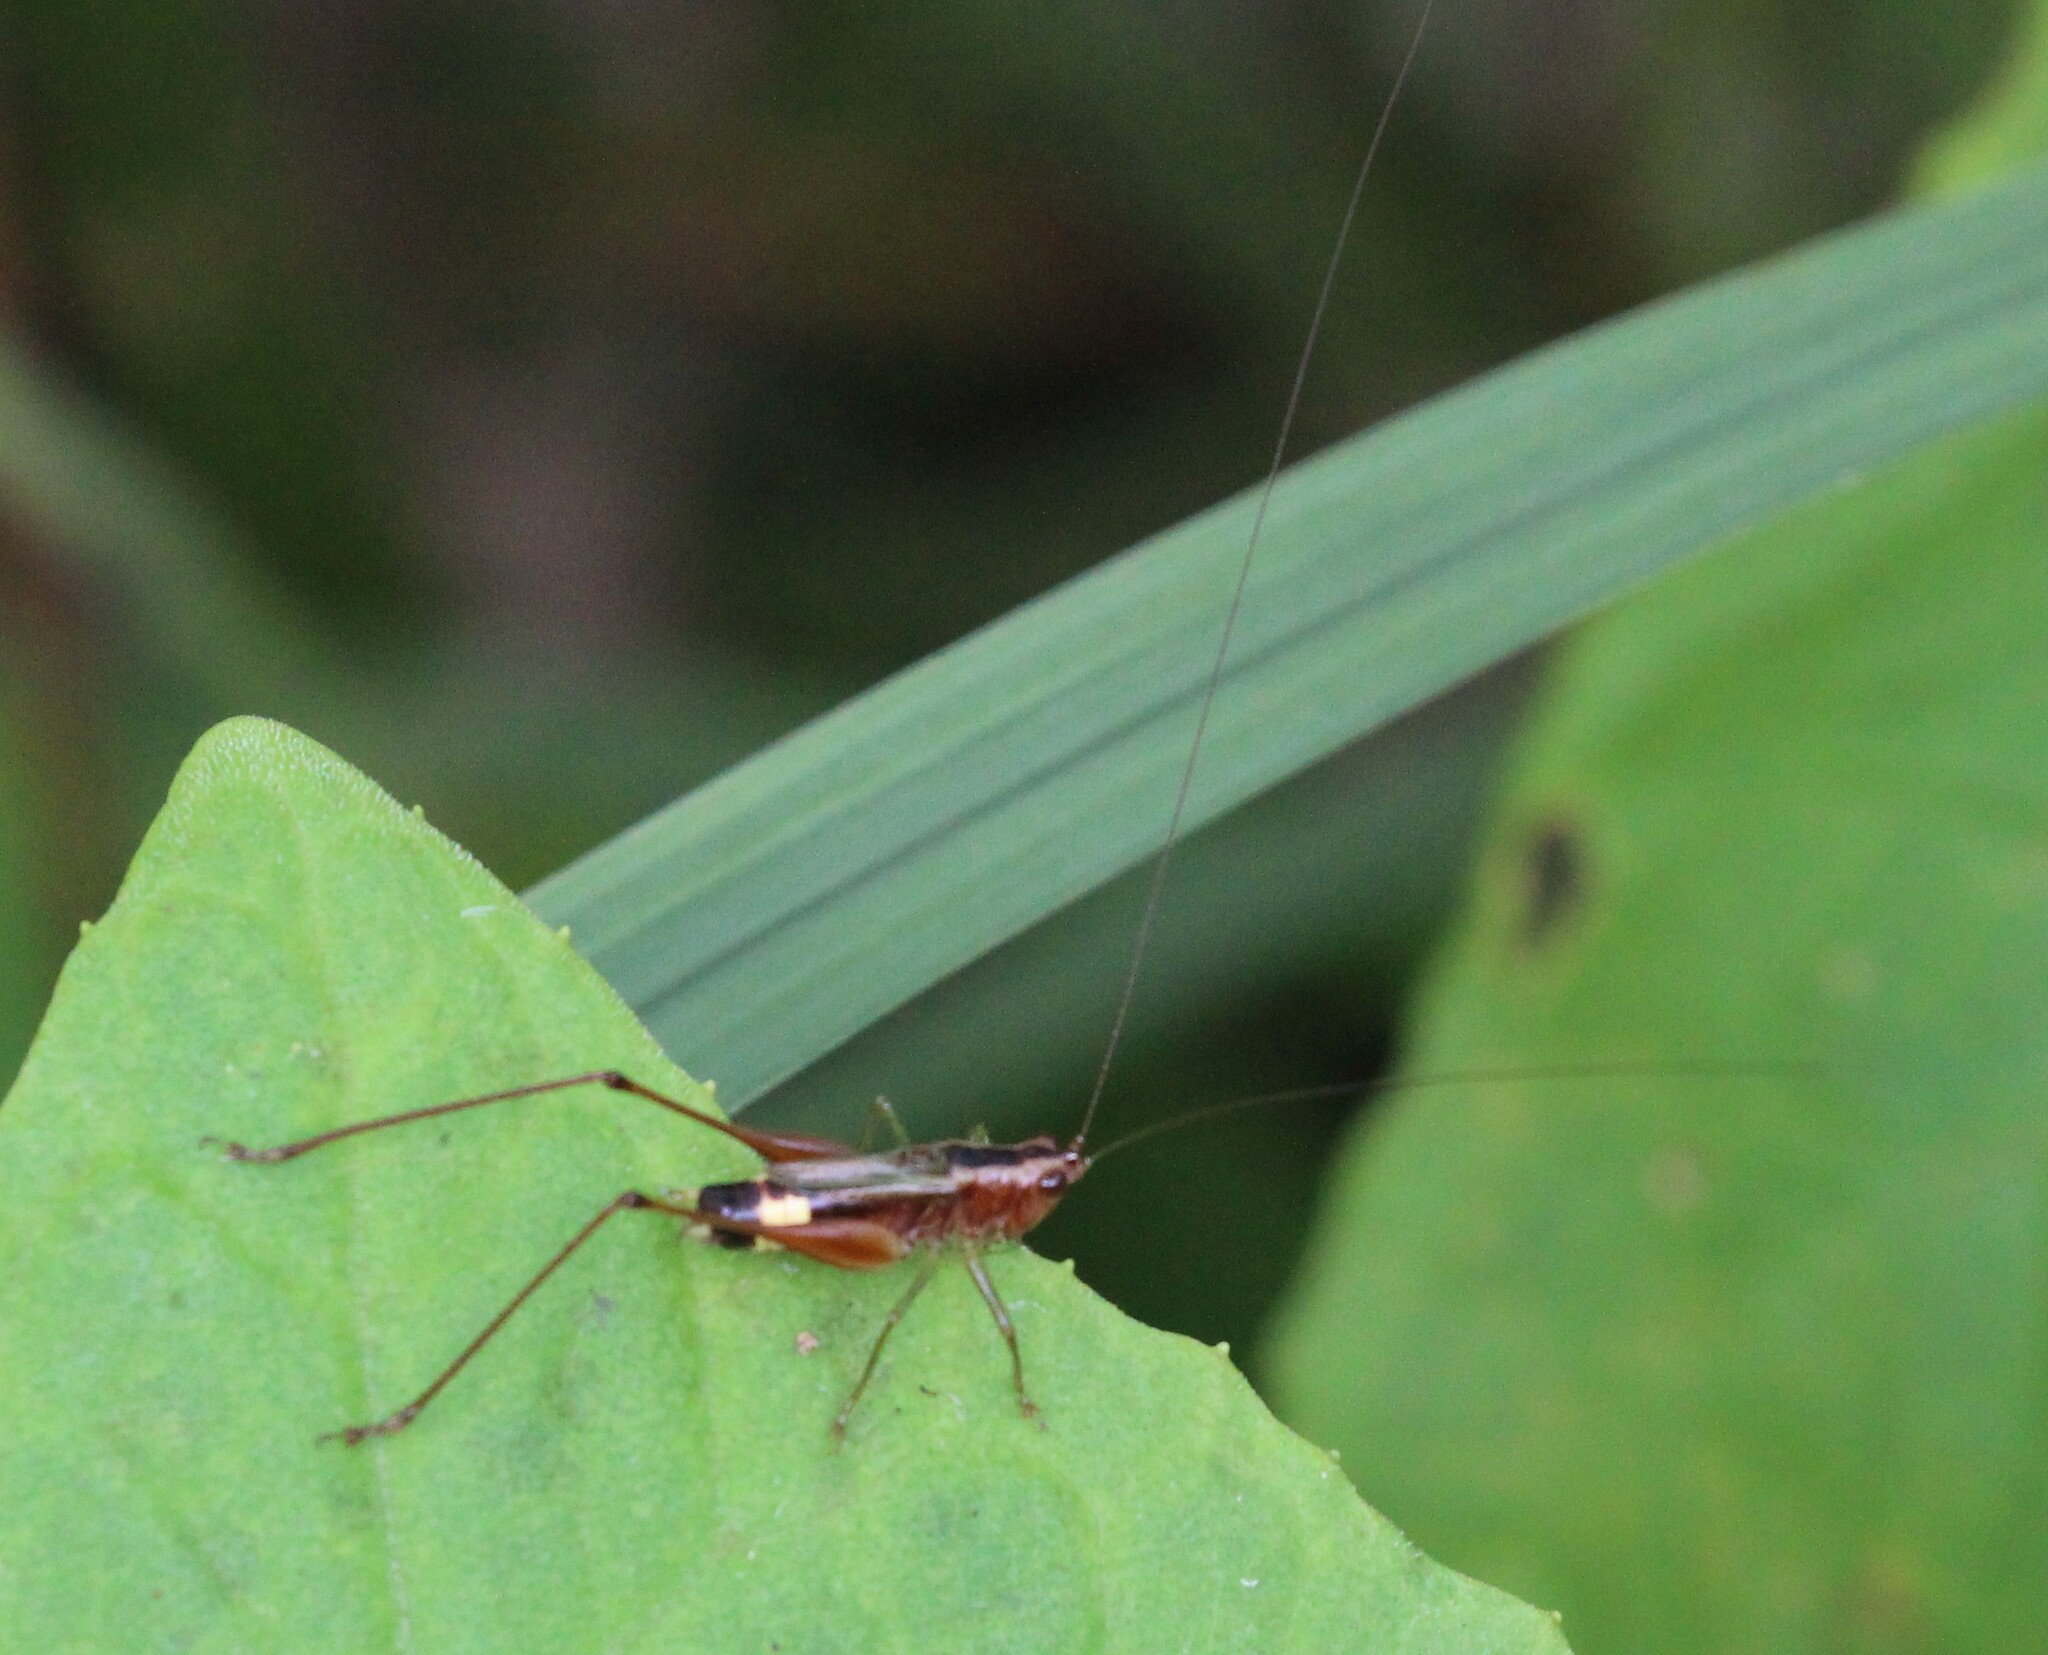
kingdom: Animalia
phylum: Arthropoda
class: Insecta
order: Orthoptera
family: Tettigoniidae
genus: Conocephalus
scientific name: Conocephalus versicolor
